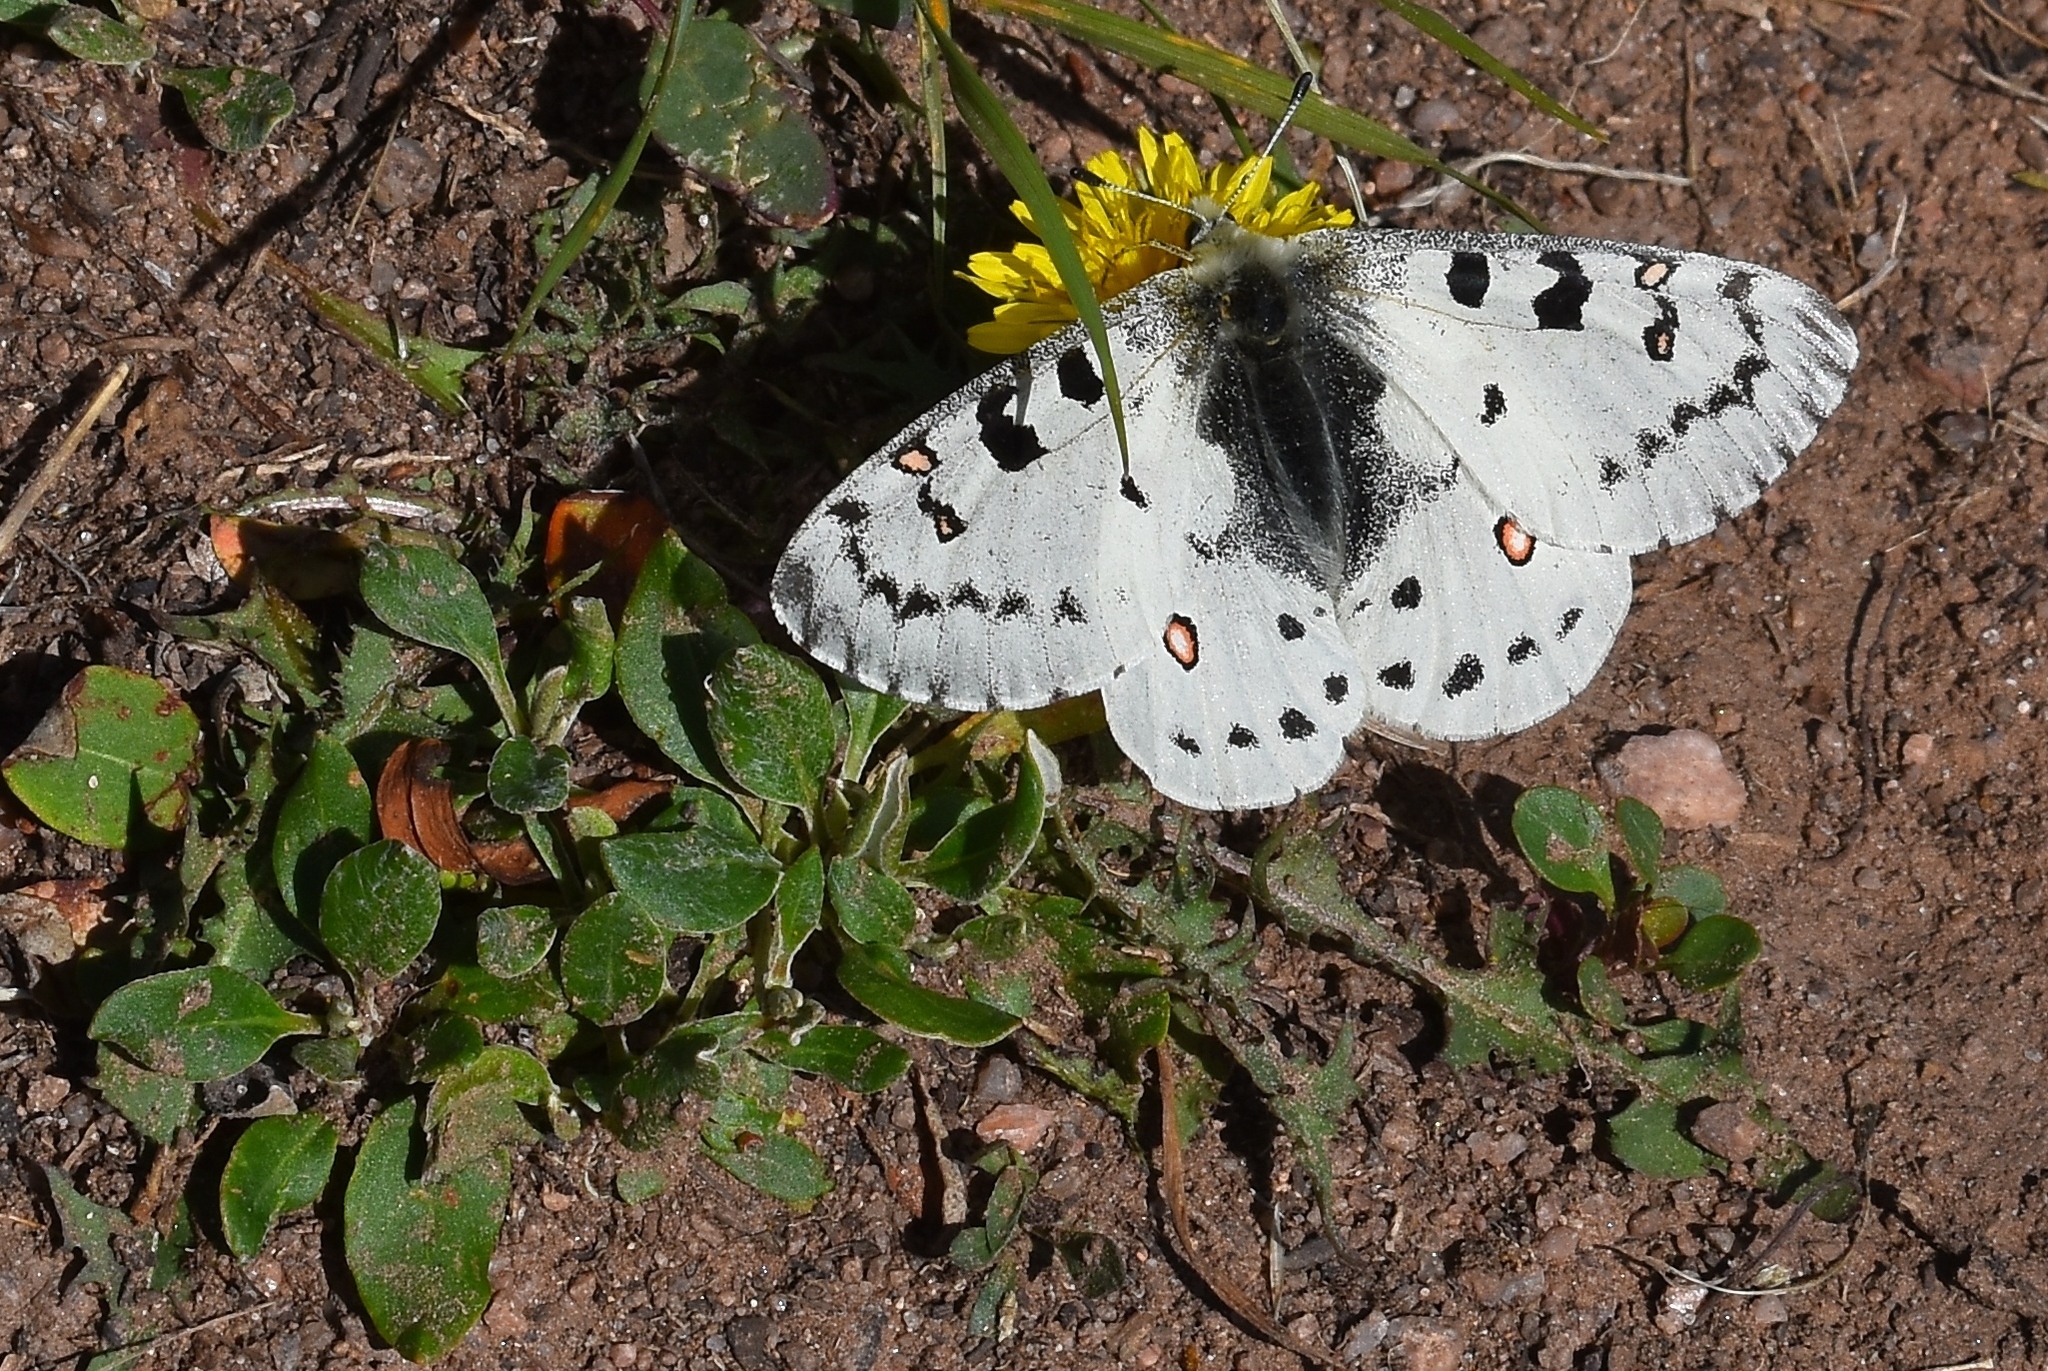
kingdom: Animalia
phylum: Arthropoda
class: Insecta
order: Lepidoptera
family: Papilionidae
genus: Parnassius
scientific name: Parnassius smintheus
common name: Mountain parnassian
